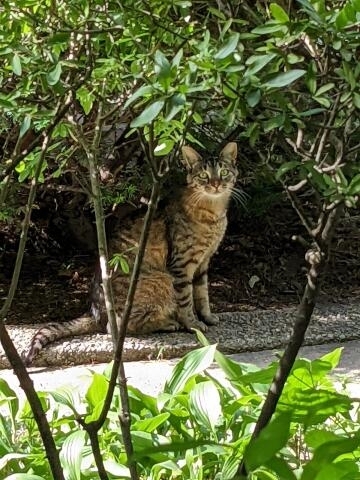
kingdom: Animalia
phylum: Chordata
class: Mammalia
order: Carnivora
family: Felidae
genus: Felis
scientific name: Felis catus
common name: Domestic cat
